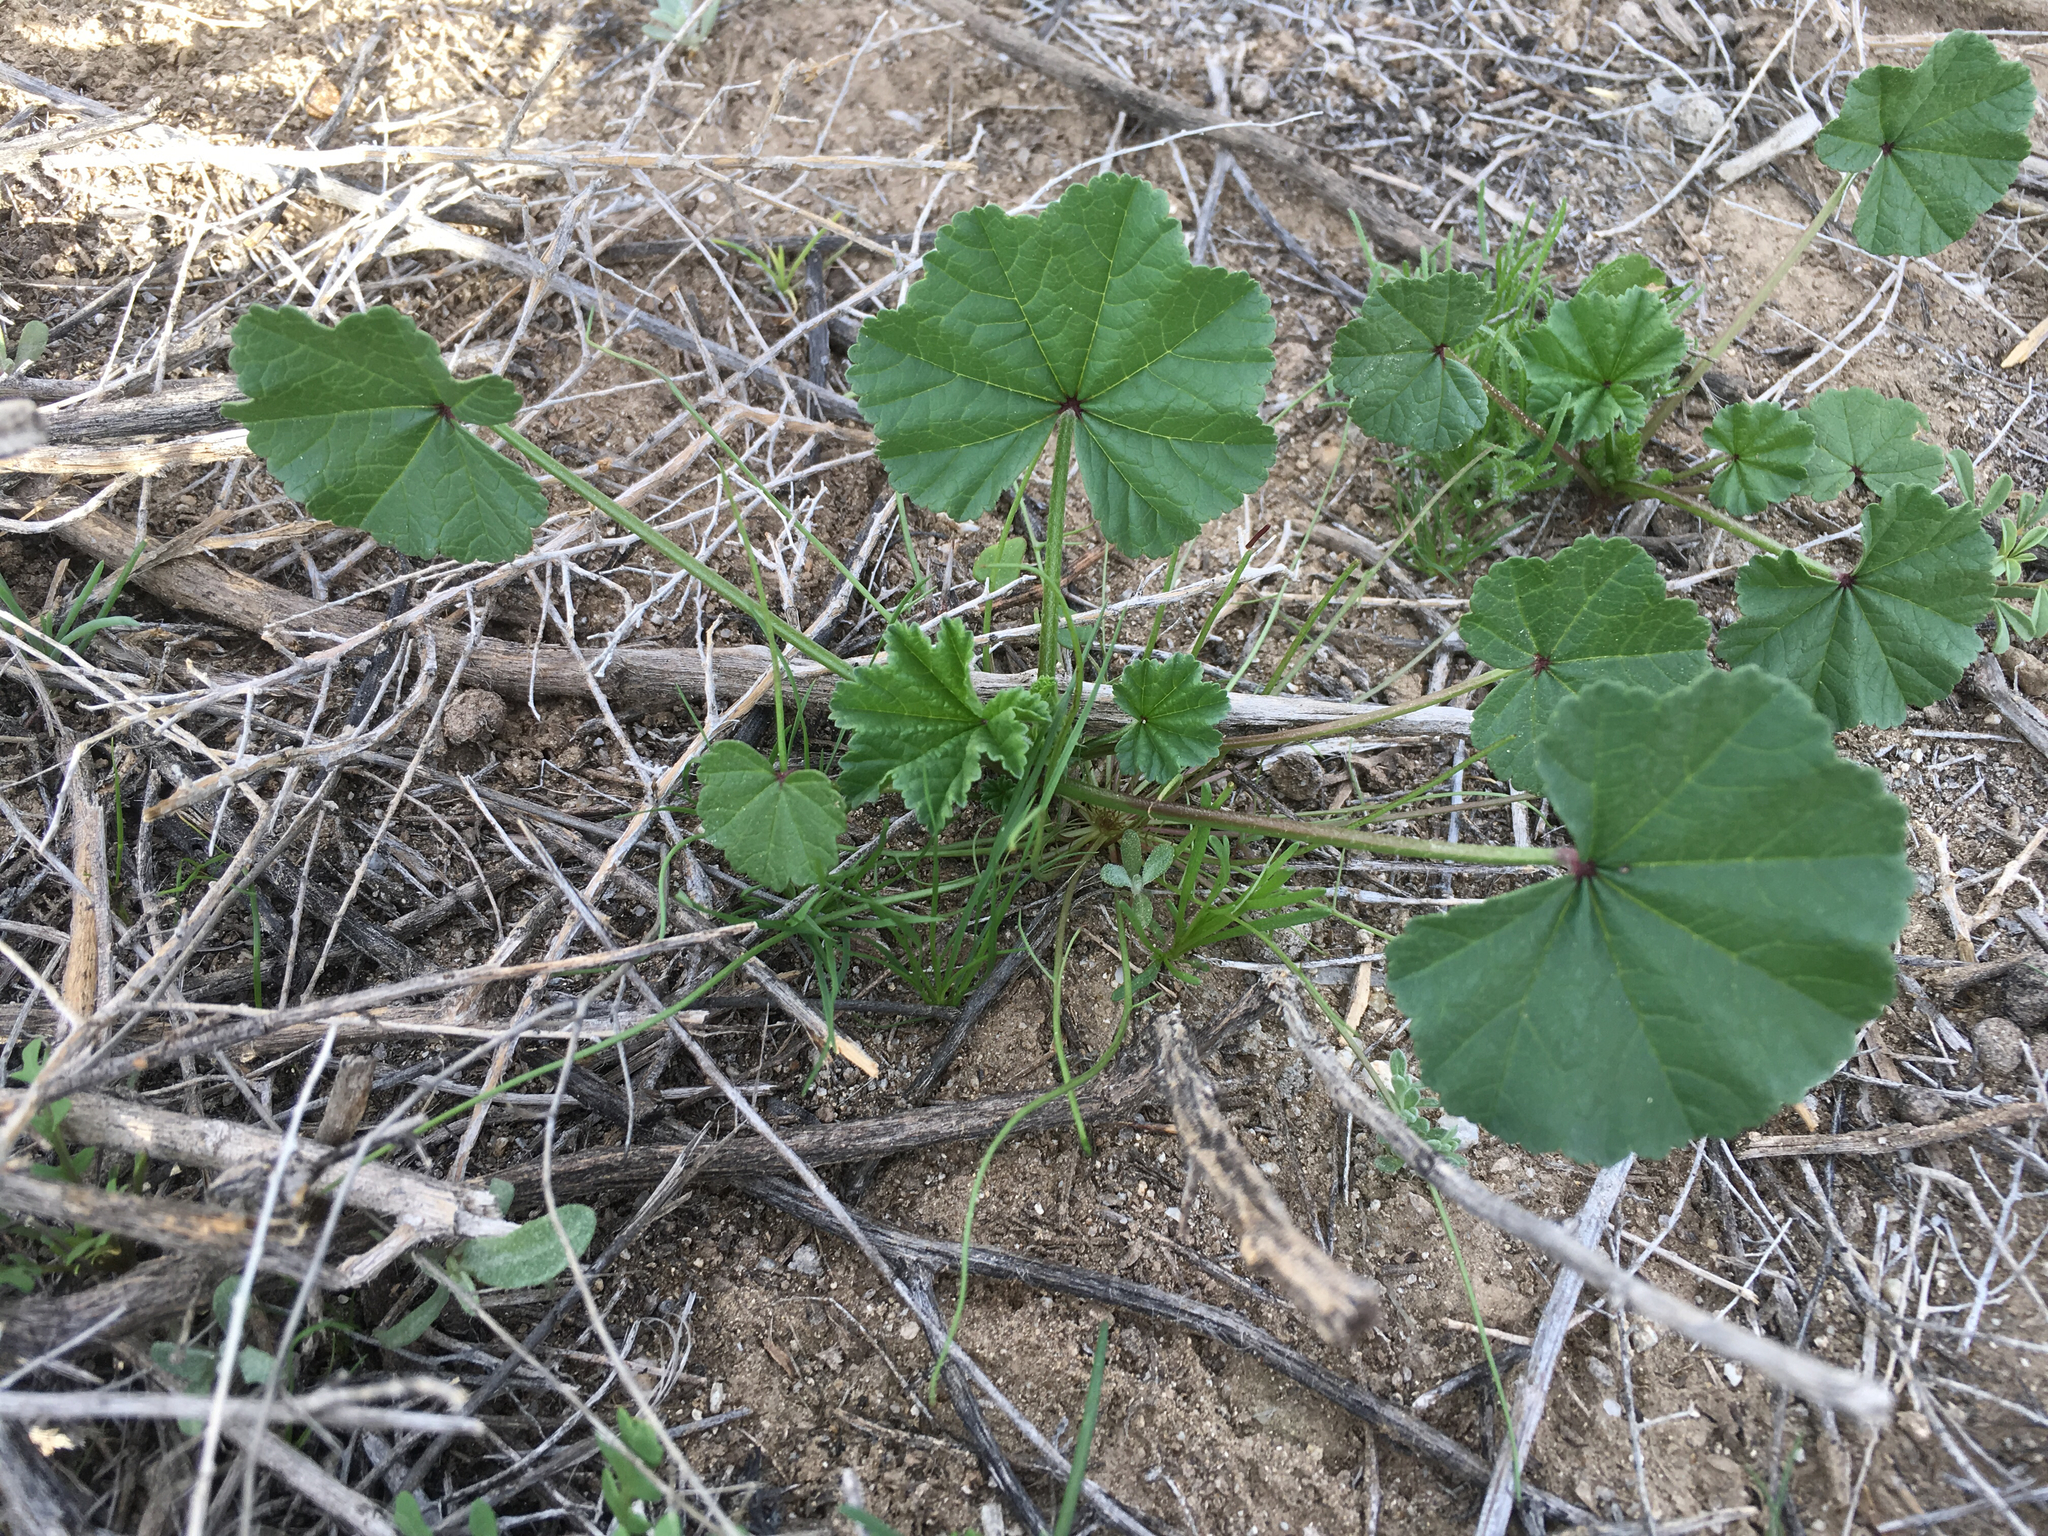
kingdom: Plantae
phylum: Tracheophyta
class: Magnoliopsida
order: Malvales
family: Malvaceae
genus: Malva
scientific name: Malva parviflora
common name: Least mallow
